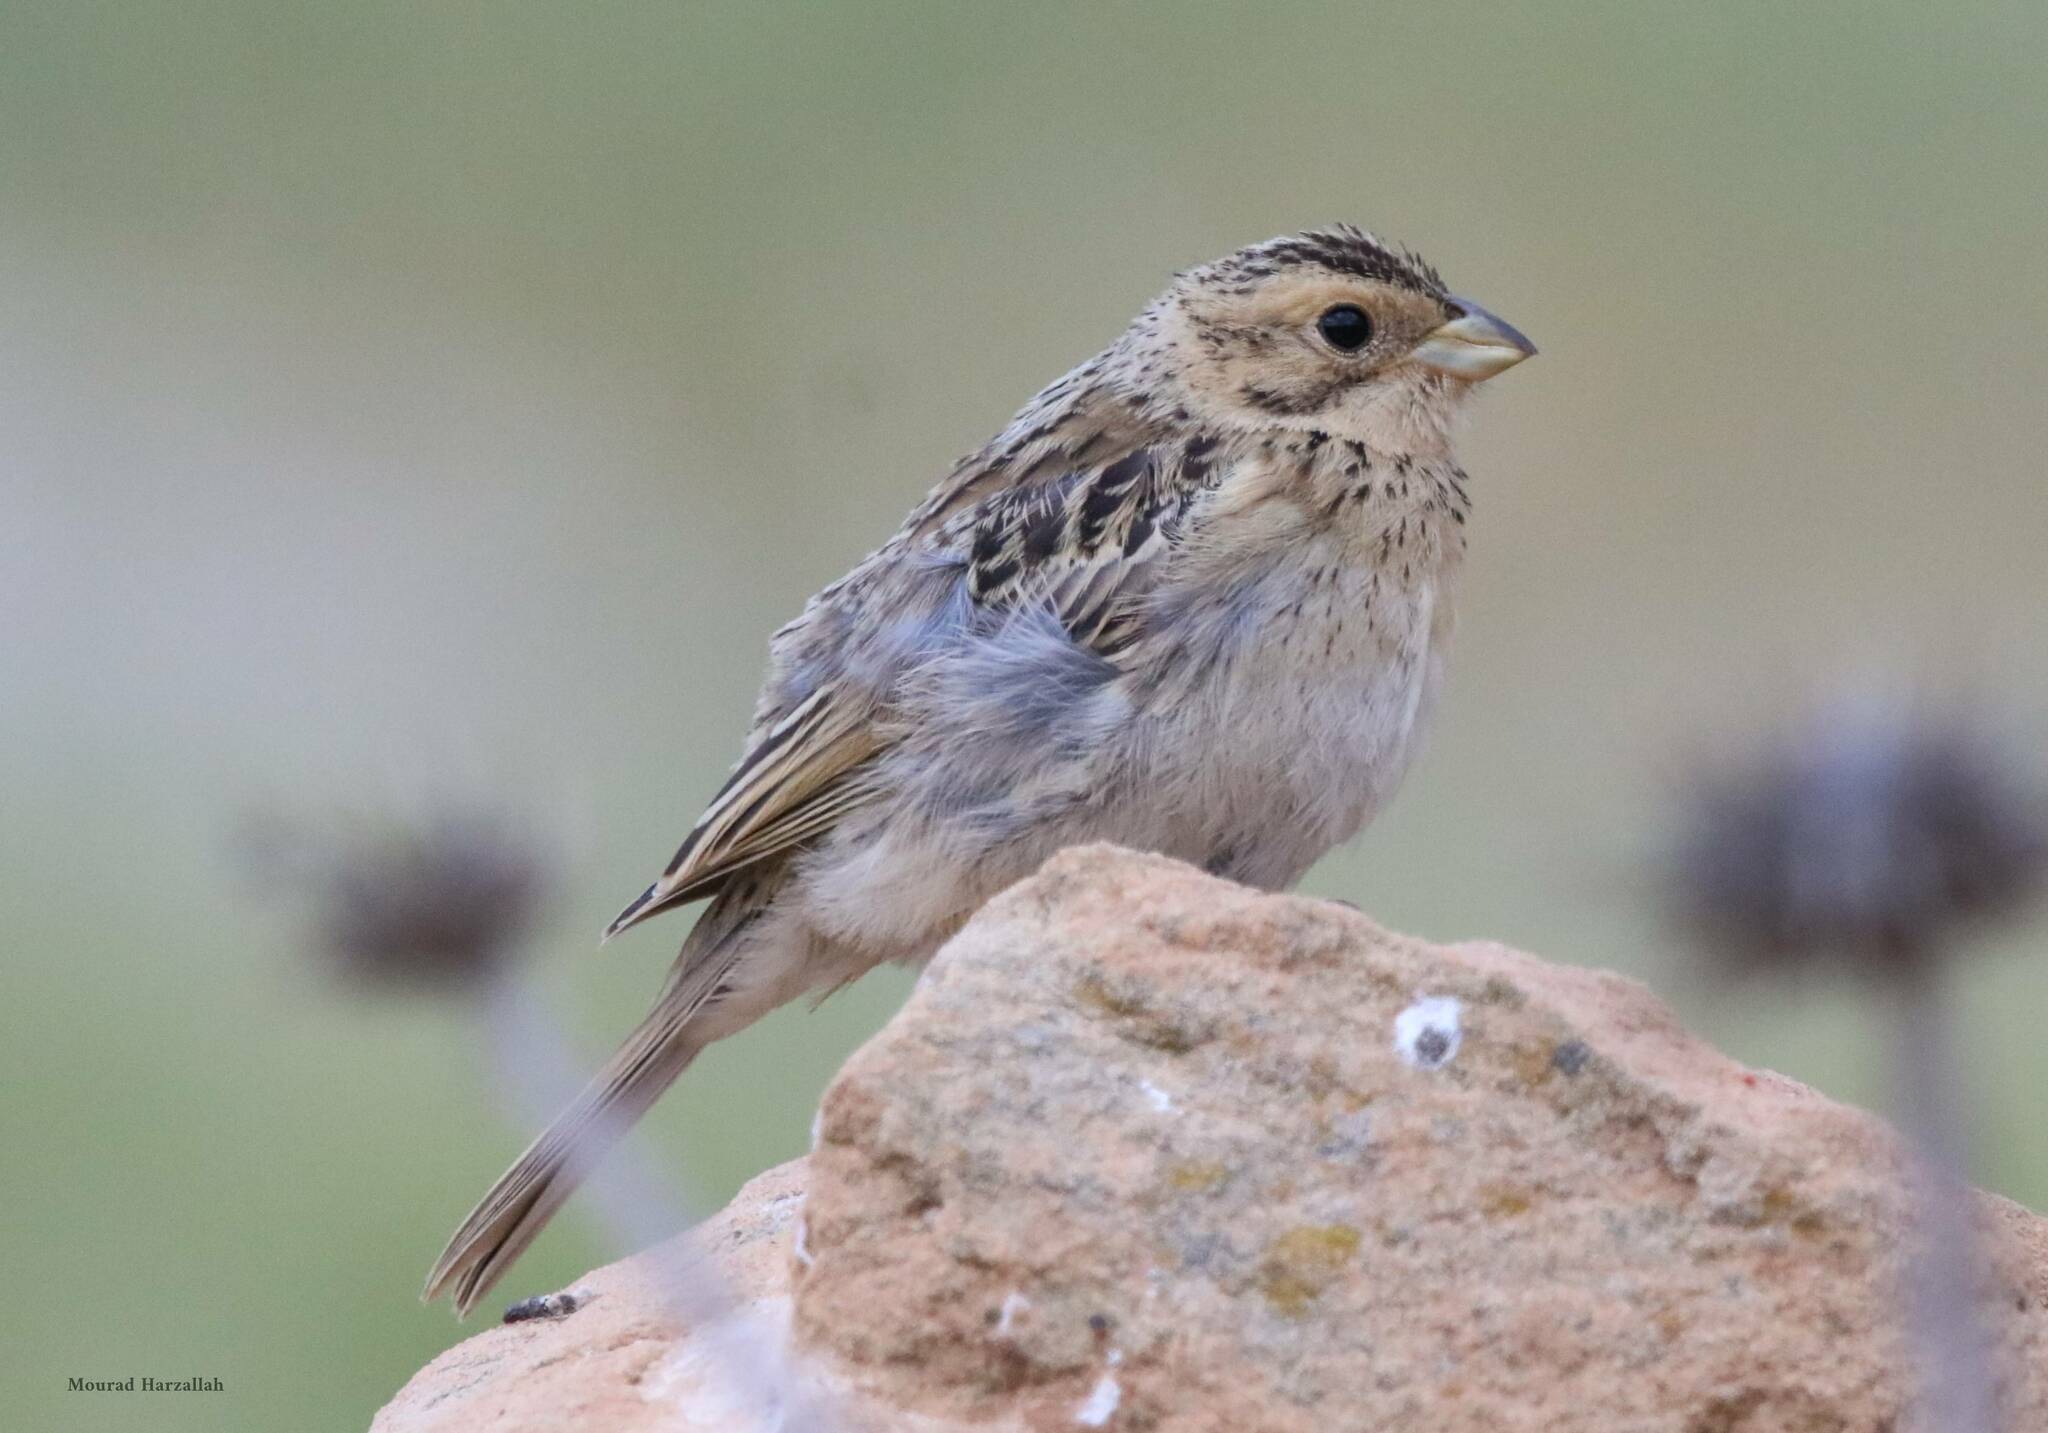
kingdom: Animalia
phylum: Chordata
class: Aves
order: Passeriformes
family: Emberizidae
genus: Emberiza
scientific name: Emberiza calandra
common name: Corn bunting
